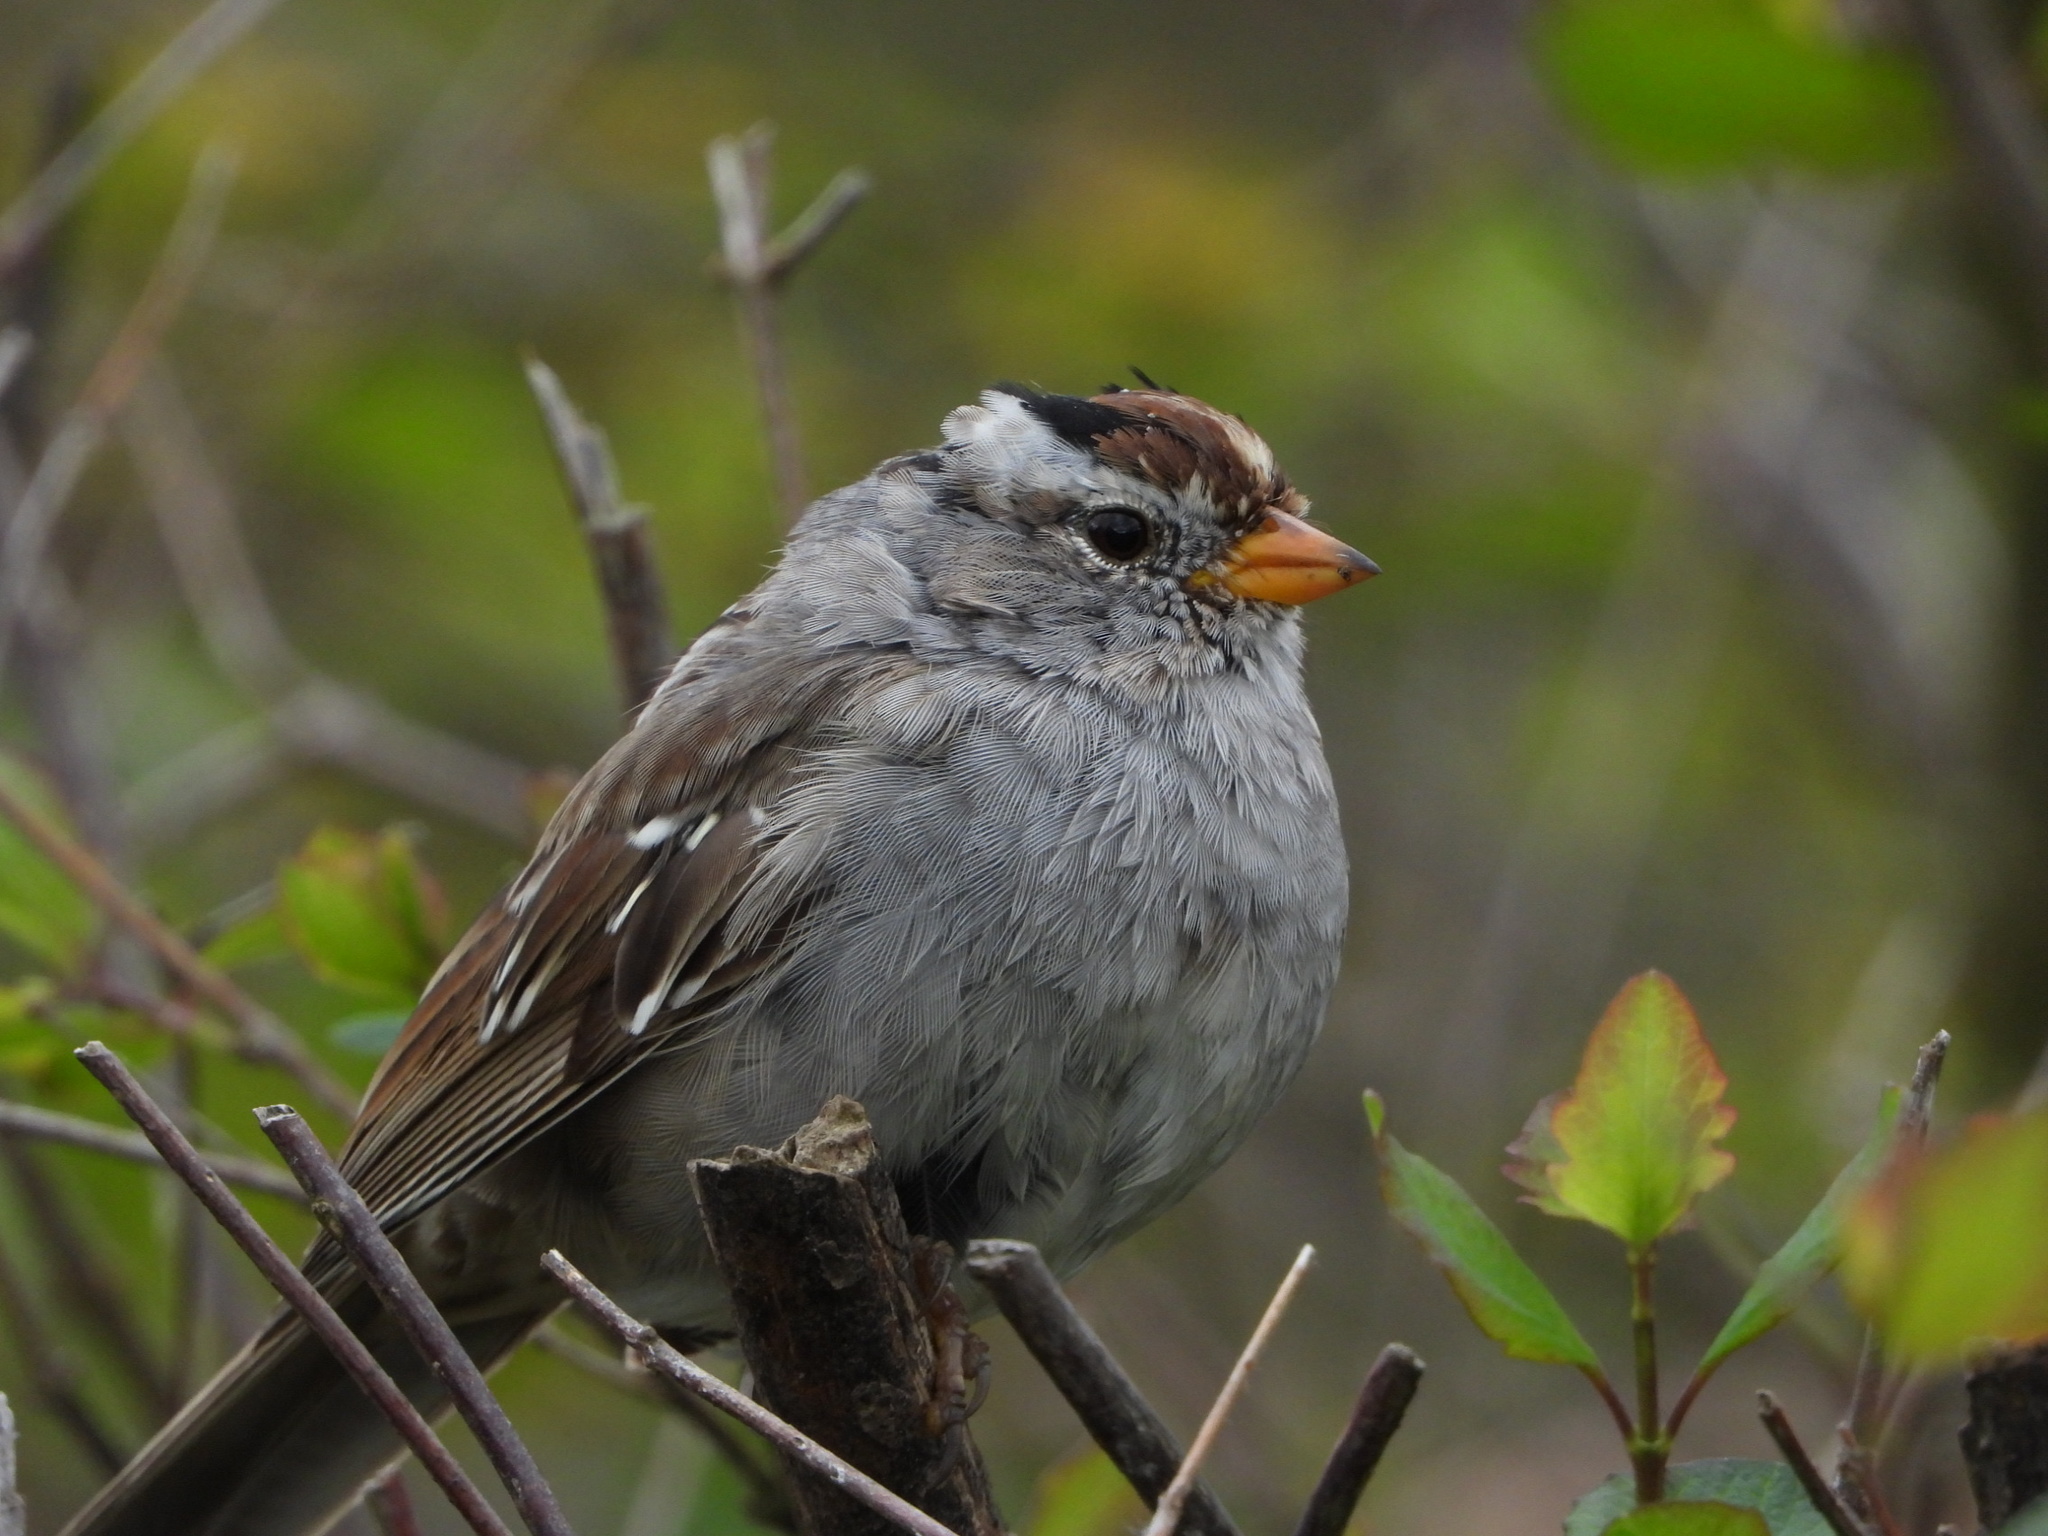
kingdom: Animalia
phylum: Chordata
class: Aves
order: Passeriformes
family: Passerellidae
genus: Zonotrichia
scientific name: Zonotrichia leucophrys
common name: White-crowned sparrow
